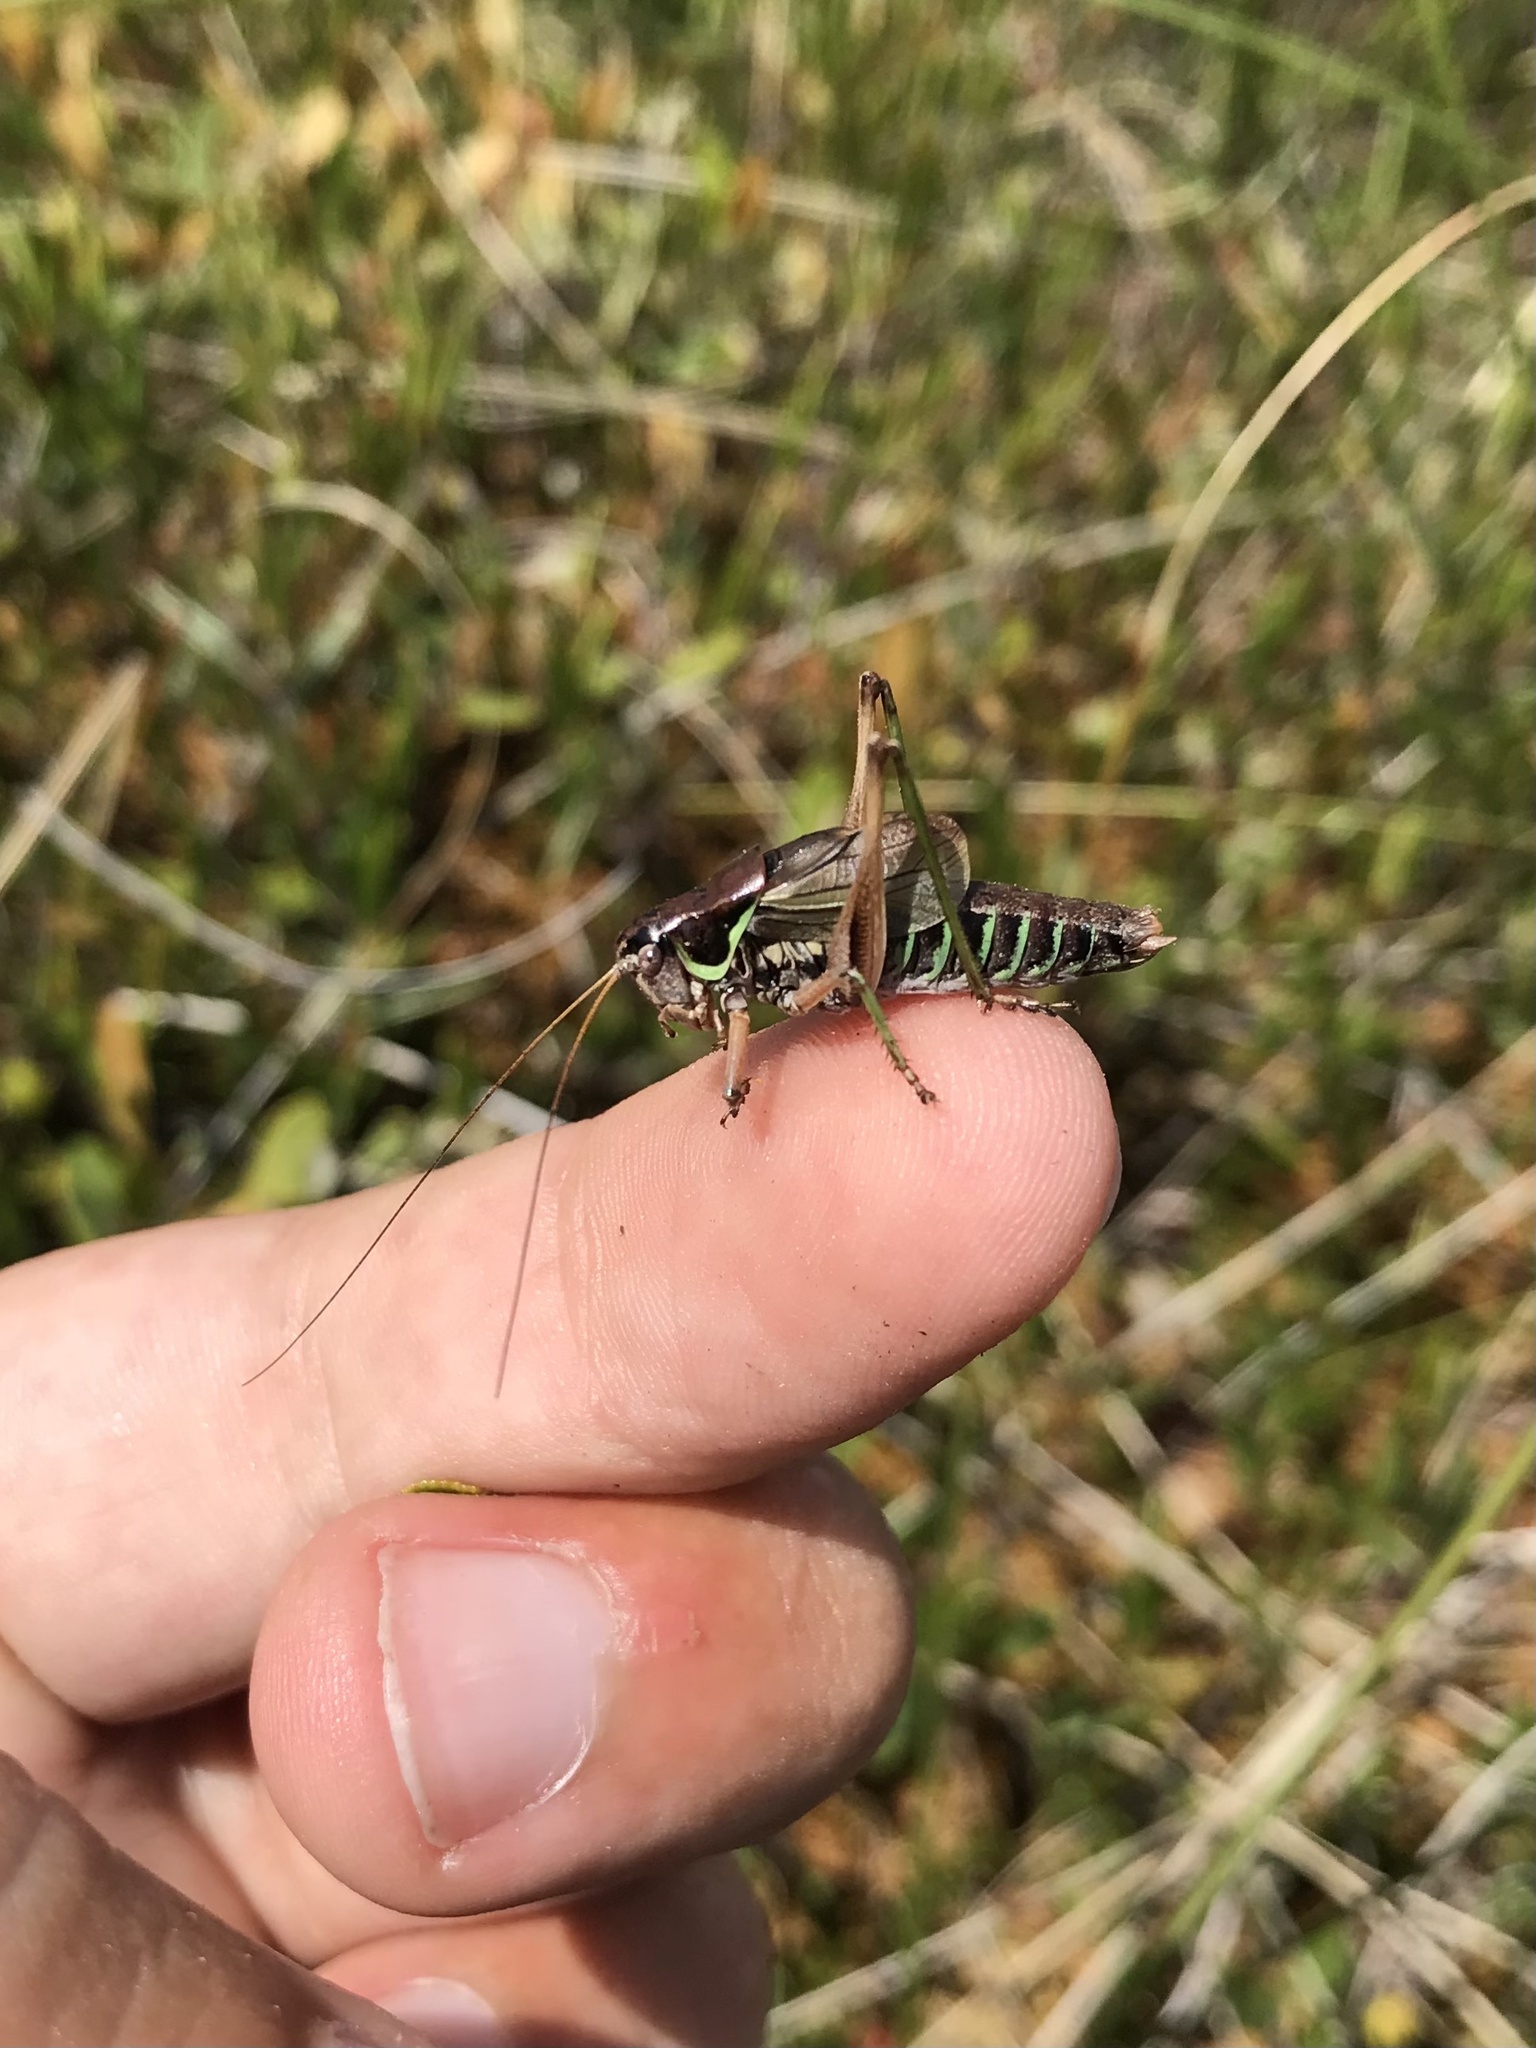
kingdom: Animalia
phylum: Arthropoda
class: Insecta
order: Orthoptera
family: Tettigoniidae
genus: Sphagniana
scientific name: Sphagniana sphagnorum
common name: Bog katydid
